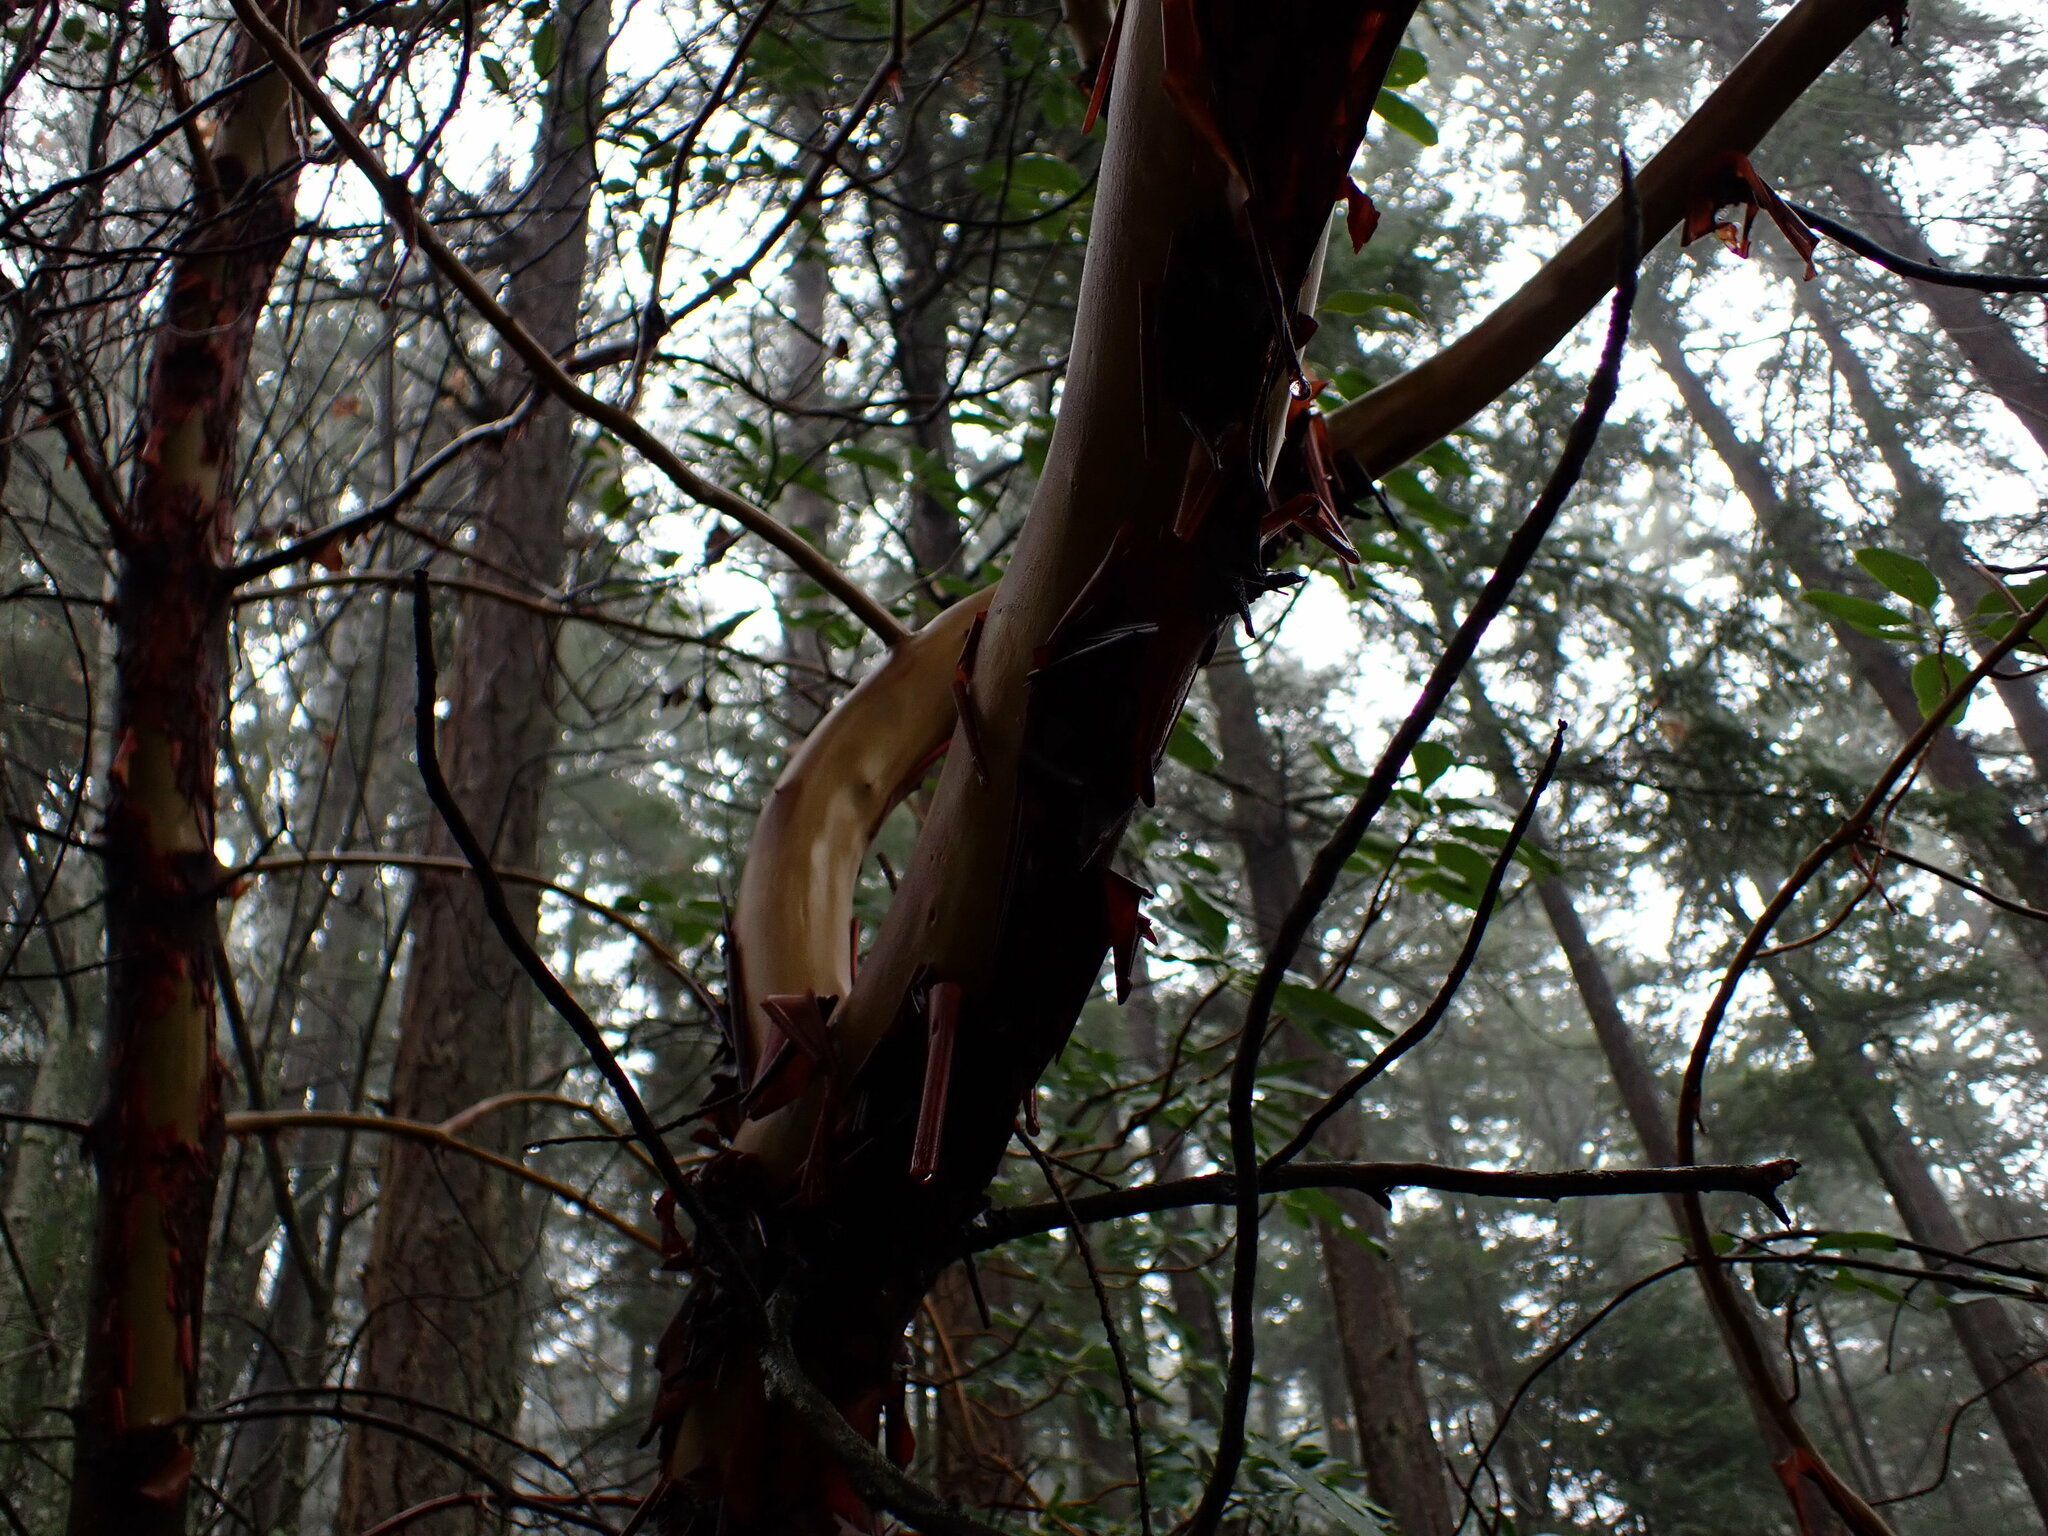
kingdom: Plantae
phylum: Tracheophyta
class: Magnoliopsida
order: Ericales
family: Ericaceae
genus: Arbutus
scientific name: Arbutus menziesii
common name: Pacific madrone
